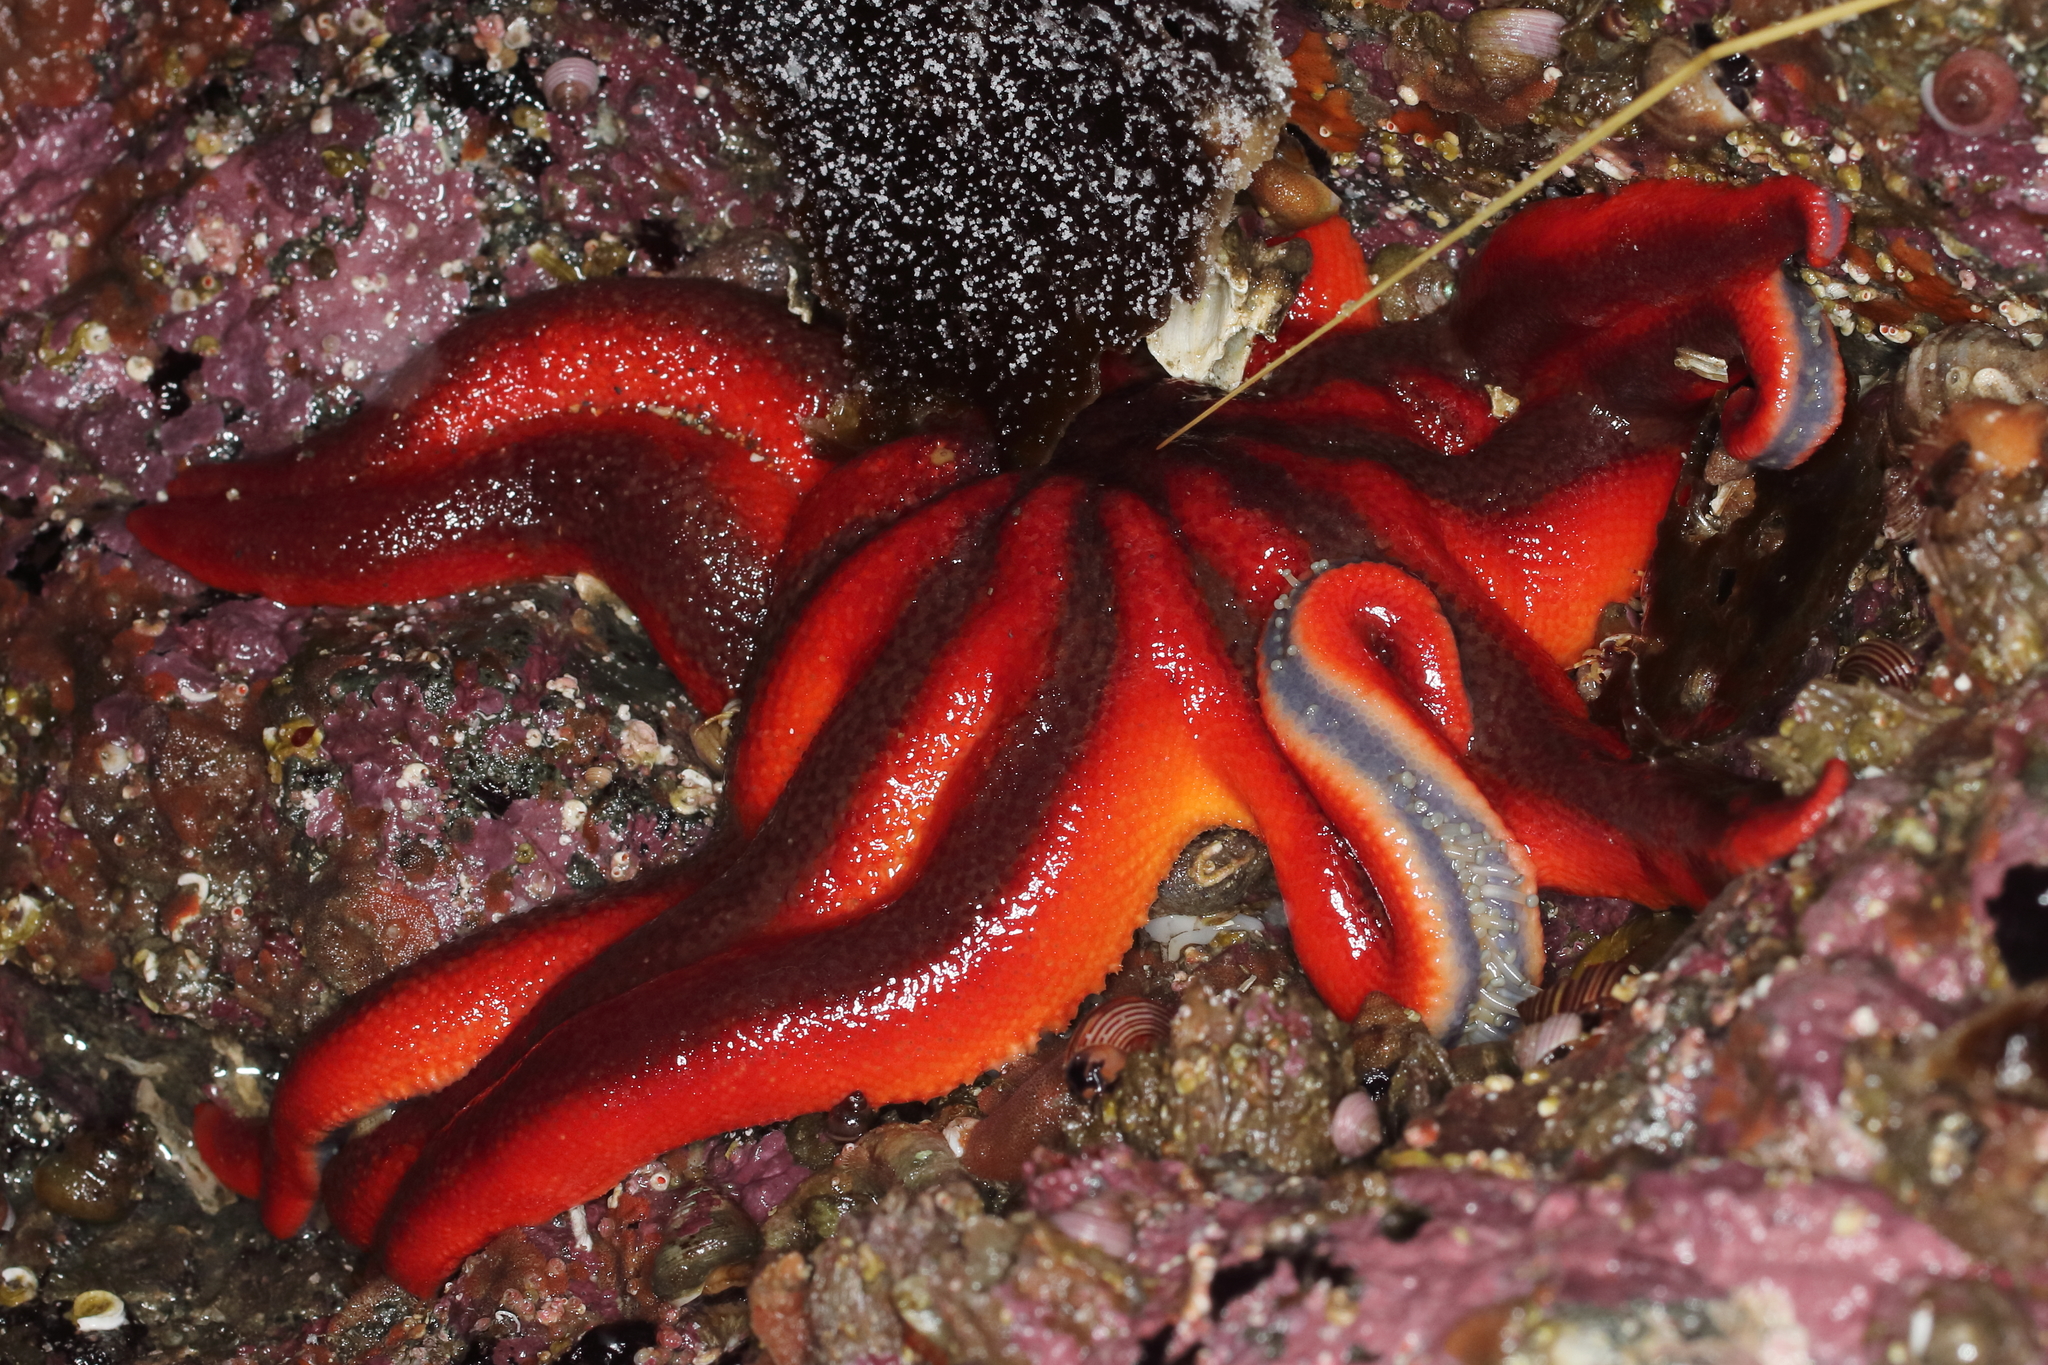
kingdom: Animalia
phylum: Echinodermata
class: Asteroidea
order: Valvatida
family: Solasteridae
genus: Solaster
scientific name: Solaster stimpsoni
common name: Orange sun star
